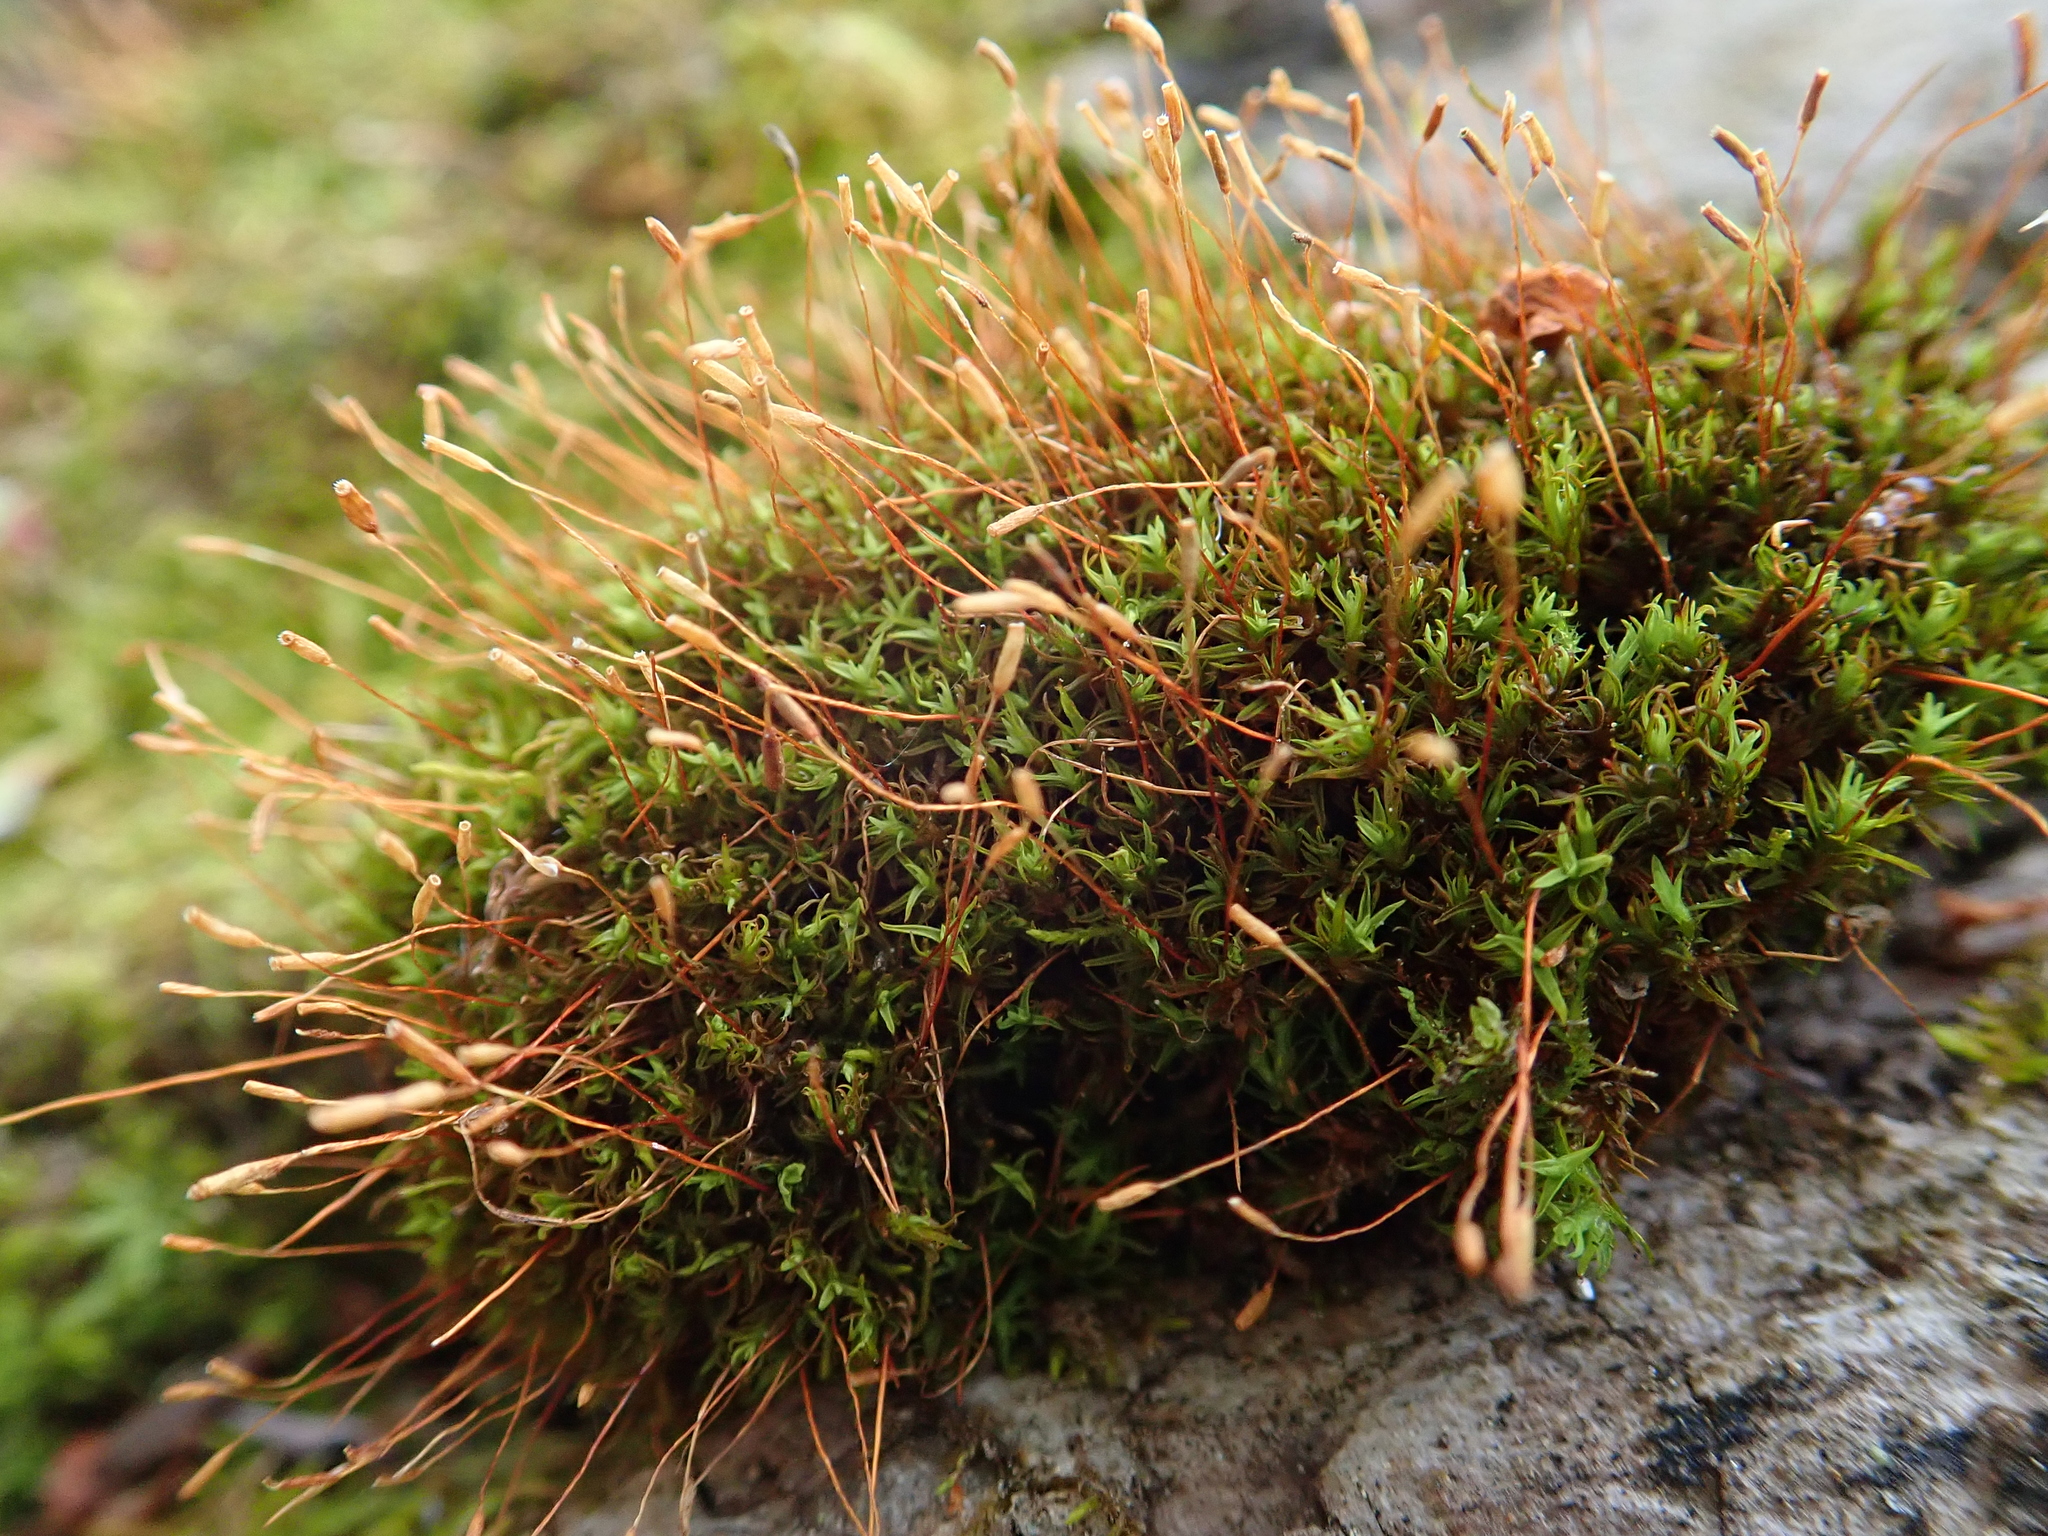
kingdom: Plantae
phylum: Bryophyta
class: Bryopsida
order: Pottiales
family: Pottiaceae
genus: Bryoerythrophyllum
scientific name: Bryoerythrophyllum recurvirostrum
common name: Red beard moss
